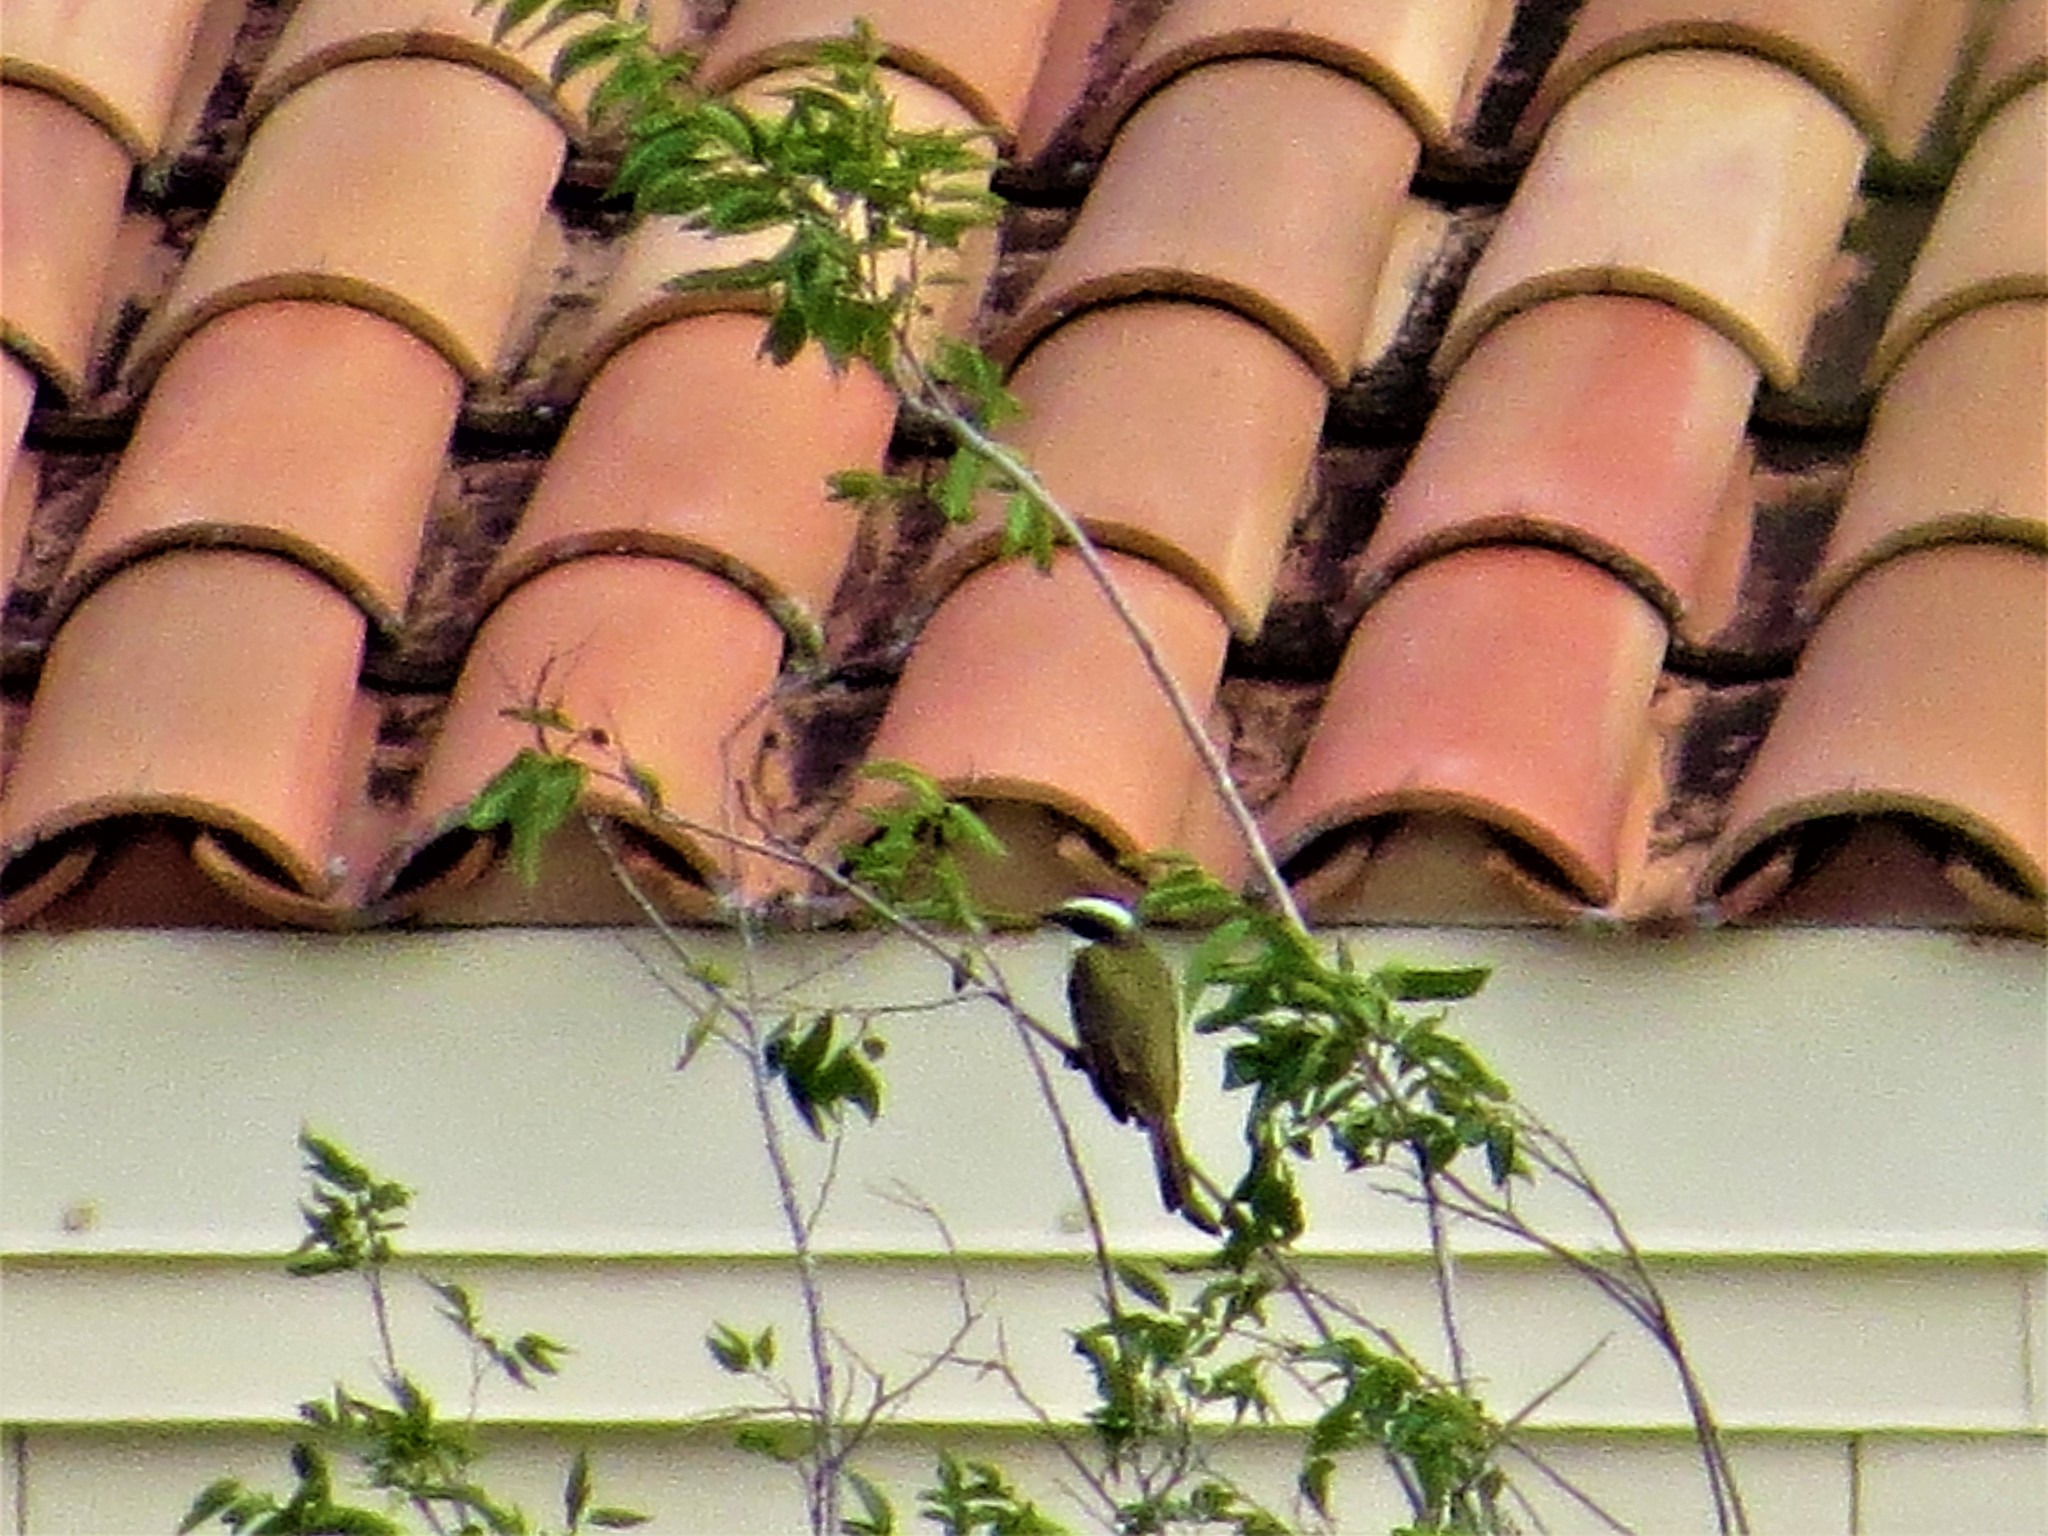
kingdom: Animalia
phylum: Chordata
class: Aves
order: Passeriformes
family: Tyrannidae
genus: Myiozetetes
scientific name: Myiozetetes similis
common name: Social flycatcher
